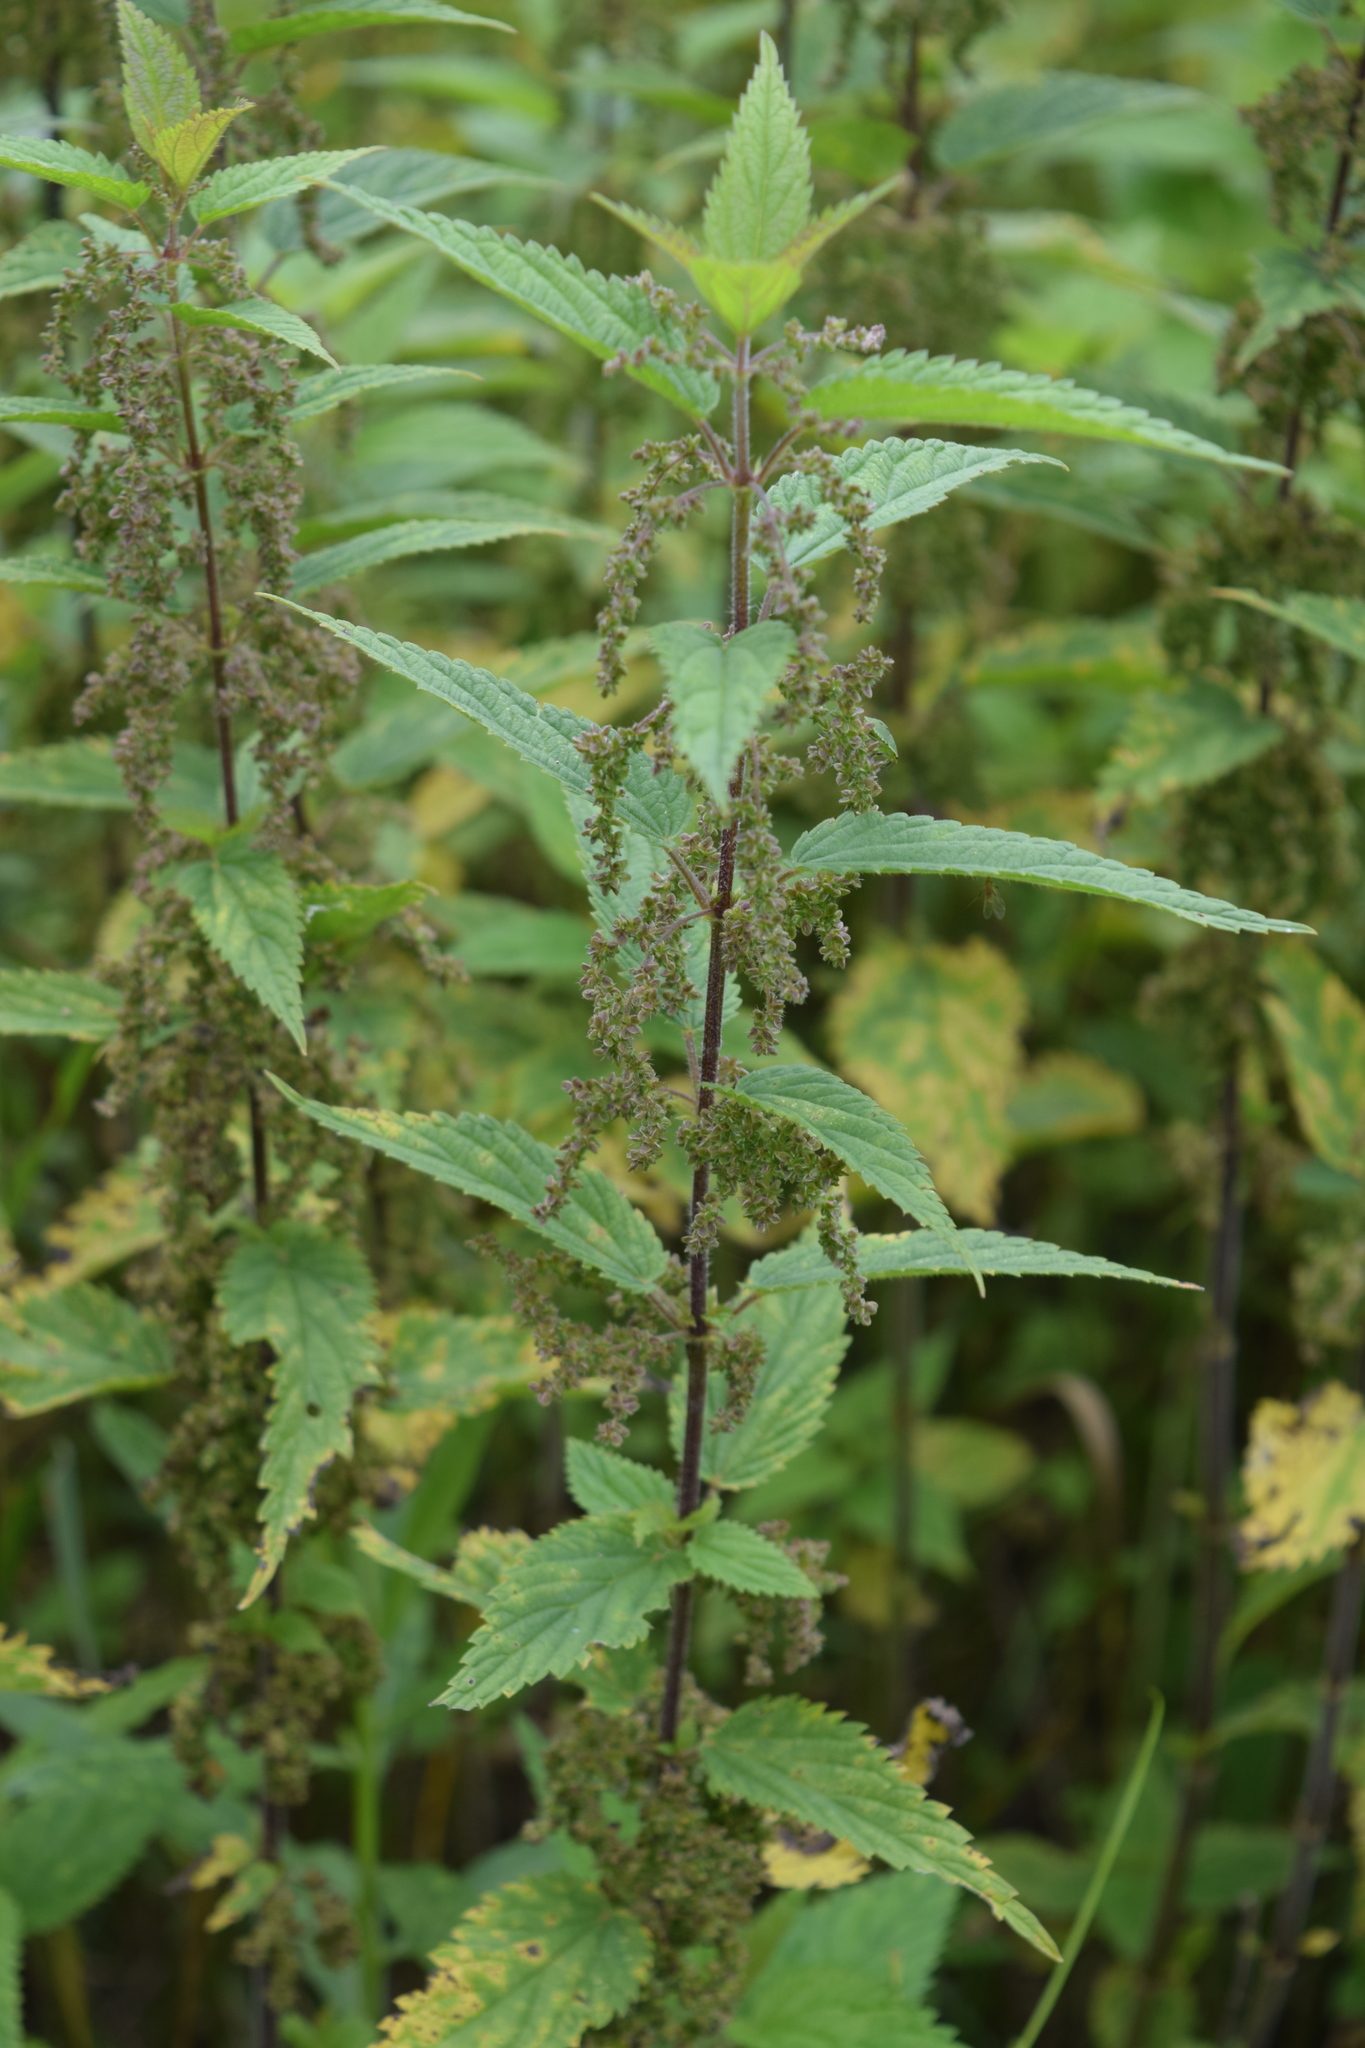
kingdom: Plantae
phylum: Tracheophyta
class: Magnoliopsida
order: Rosales
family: Urticaceae
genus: Urtica
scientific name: Urtica dioica
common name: Common nettle
